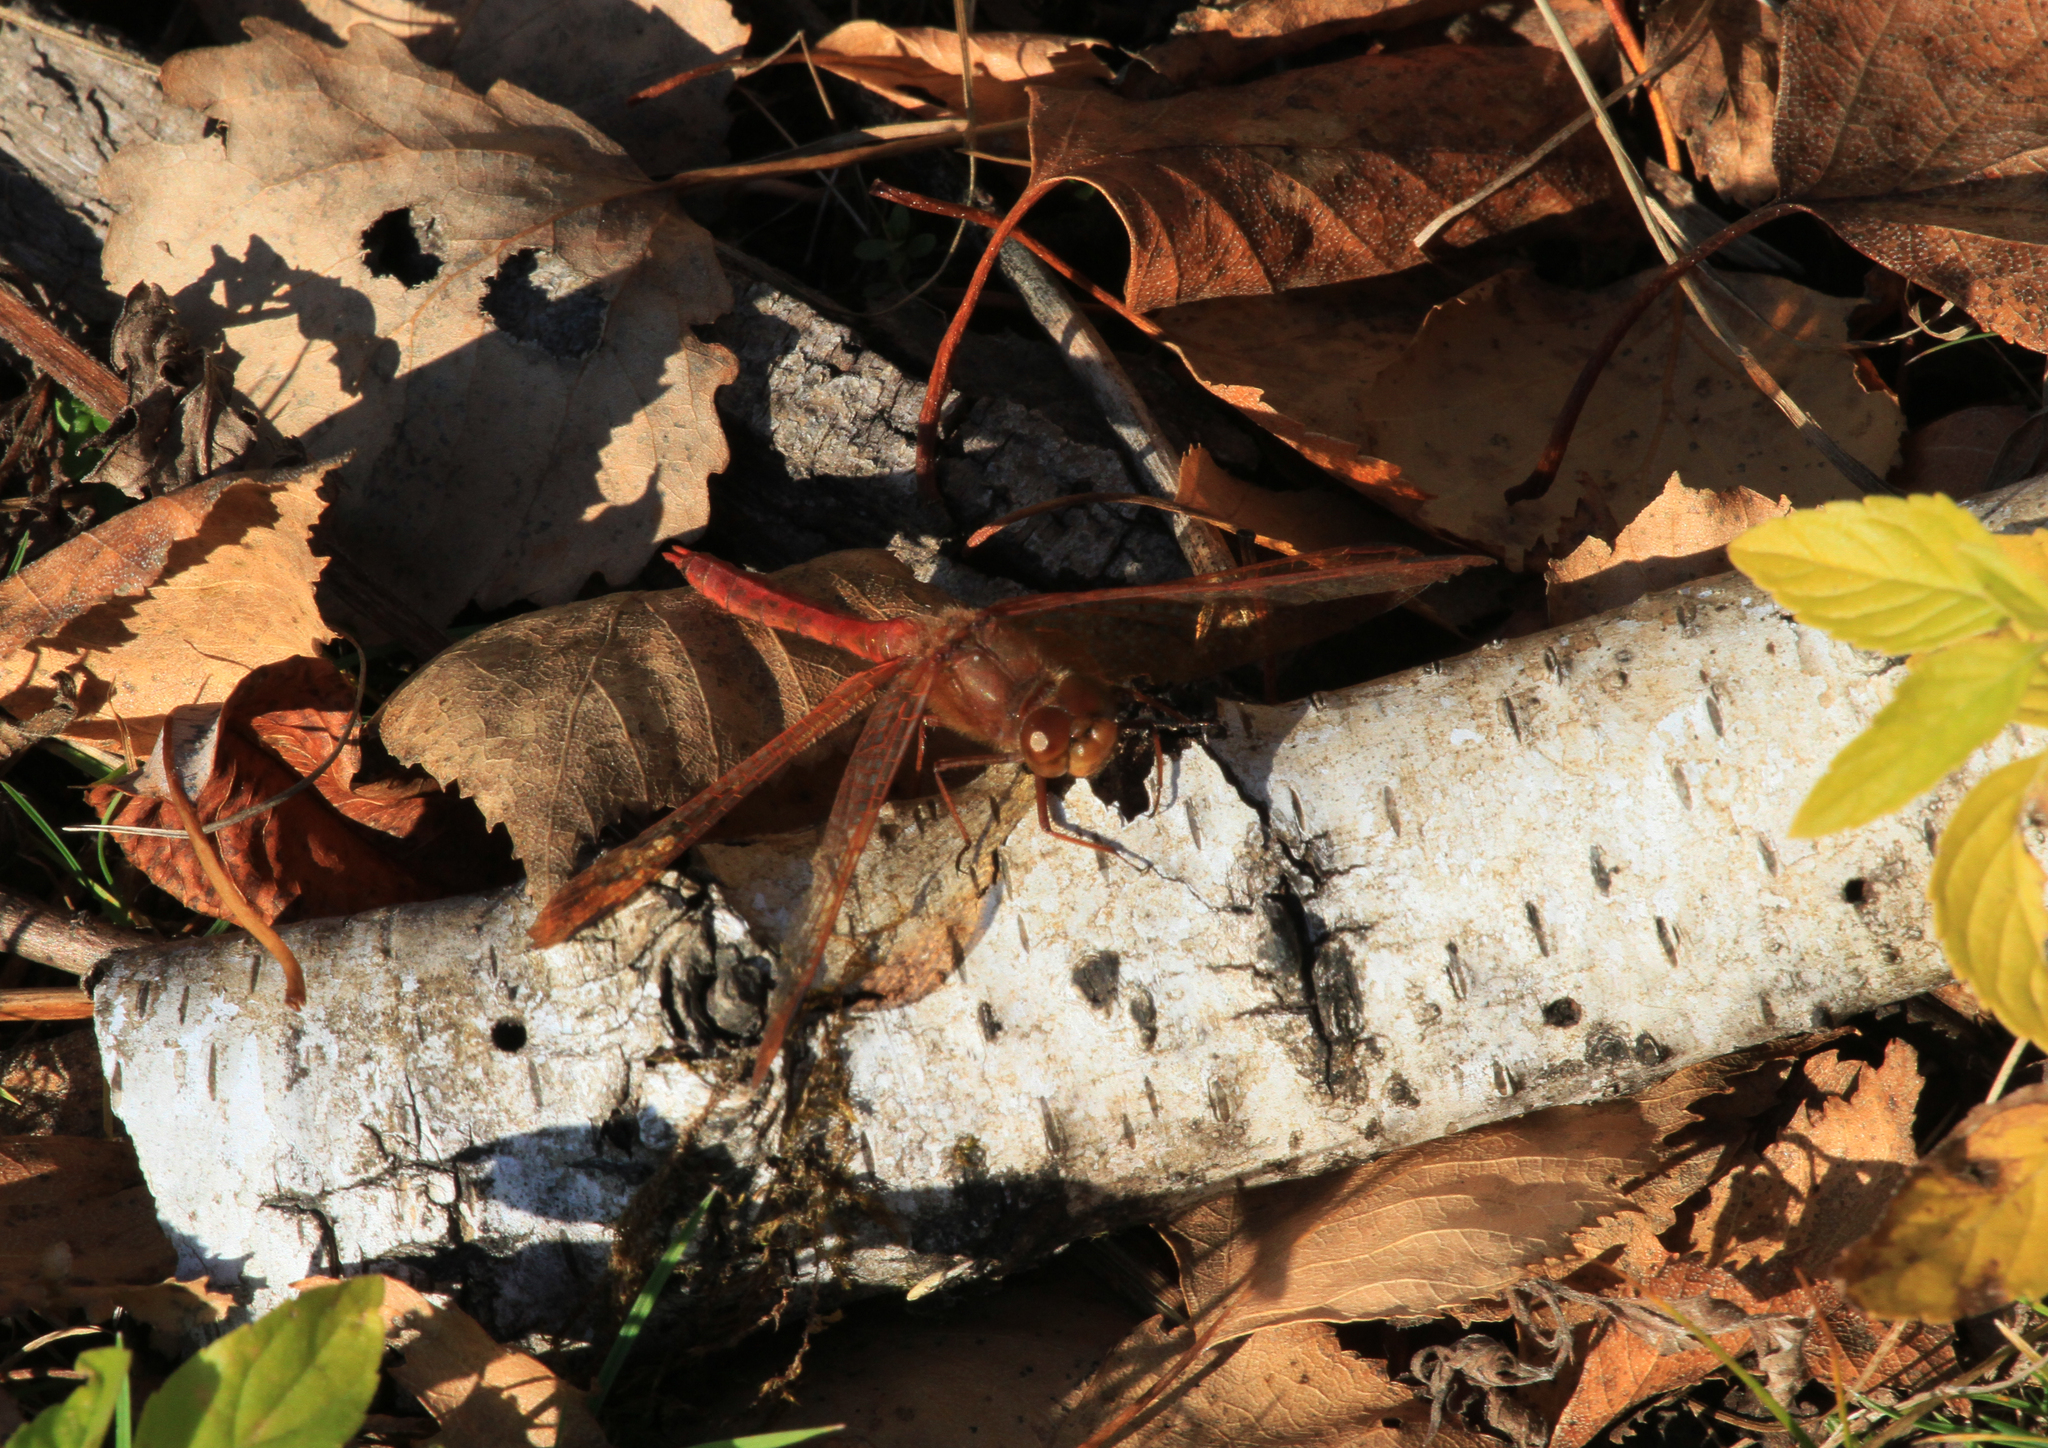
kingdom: Animalia
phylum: Arthropoda
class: Insecta
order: Odonata
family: Libellulidae
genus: Sympetrum
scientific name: Sympetrum croceolum
